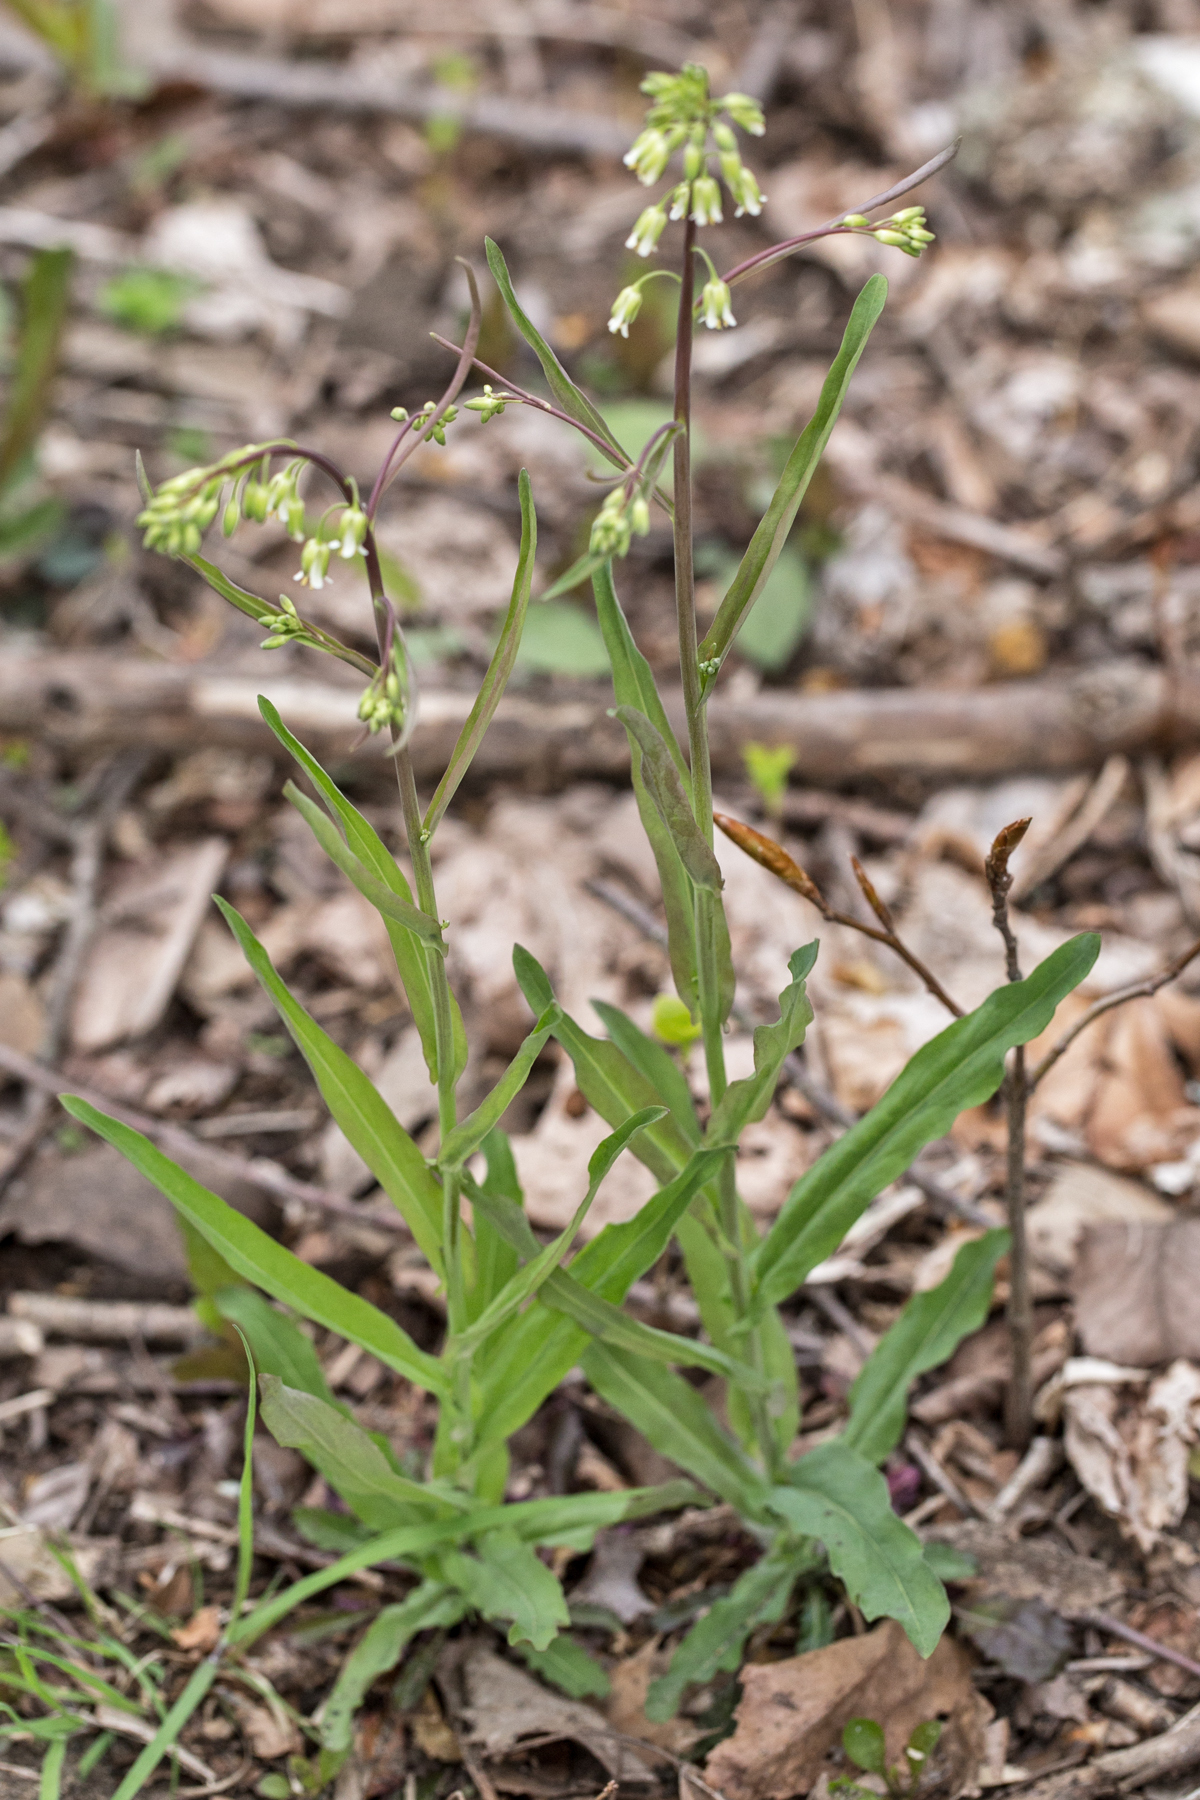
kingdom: Plantae
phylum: Tracheophyta
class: Magnoliopsida
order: Brassicales
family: Brassicaceae
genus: Borodinia
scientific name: Borodinia laevigata
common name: Smooth rockcress
